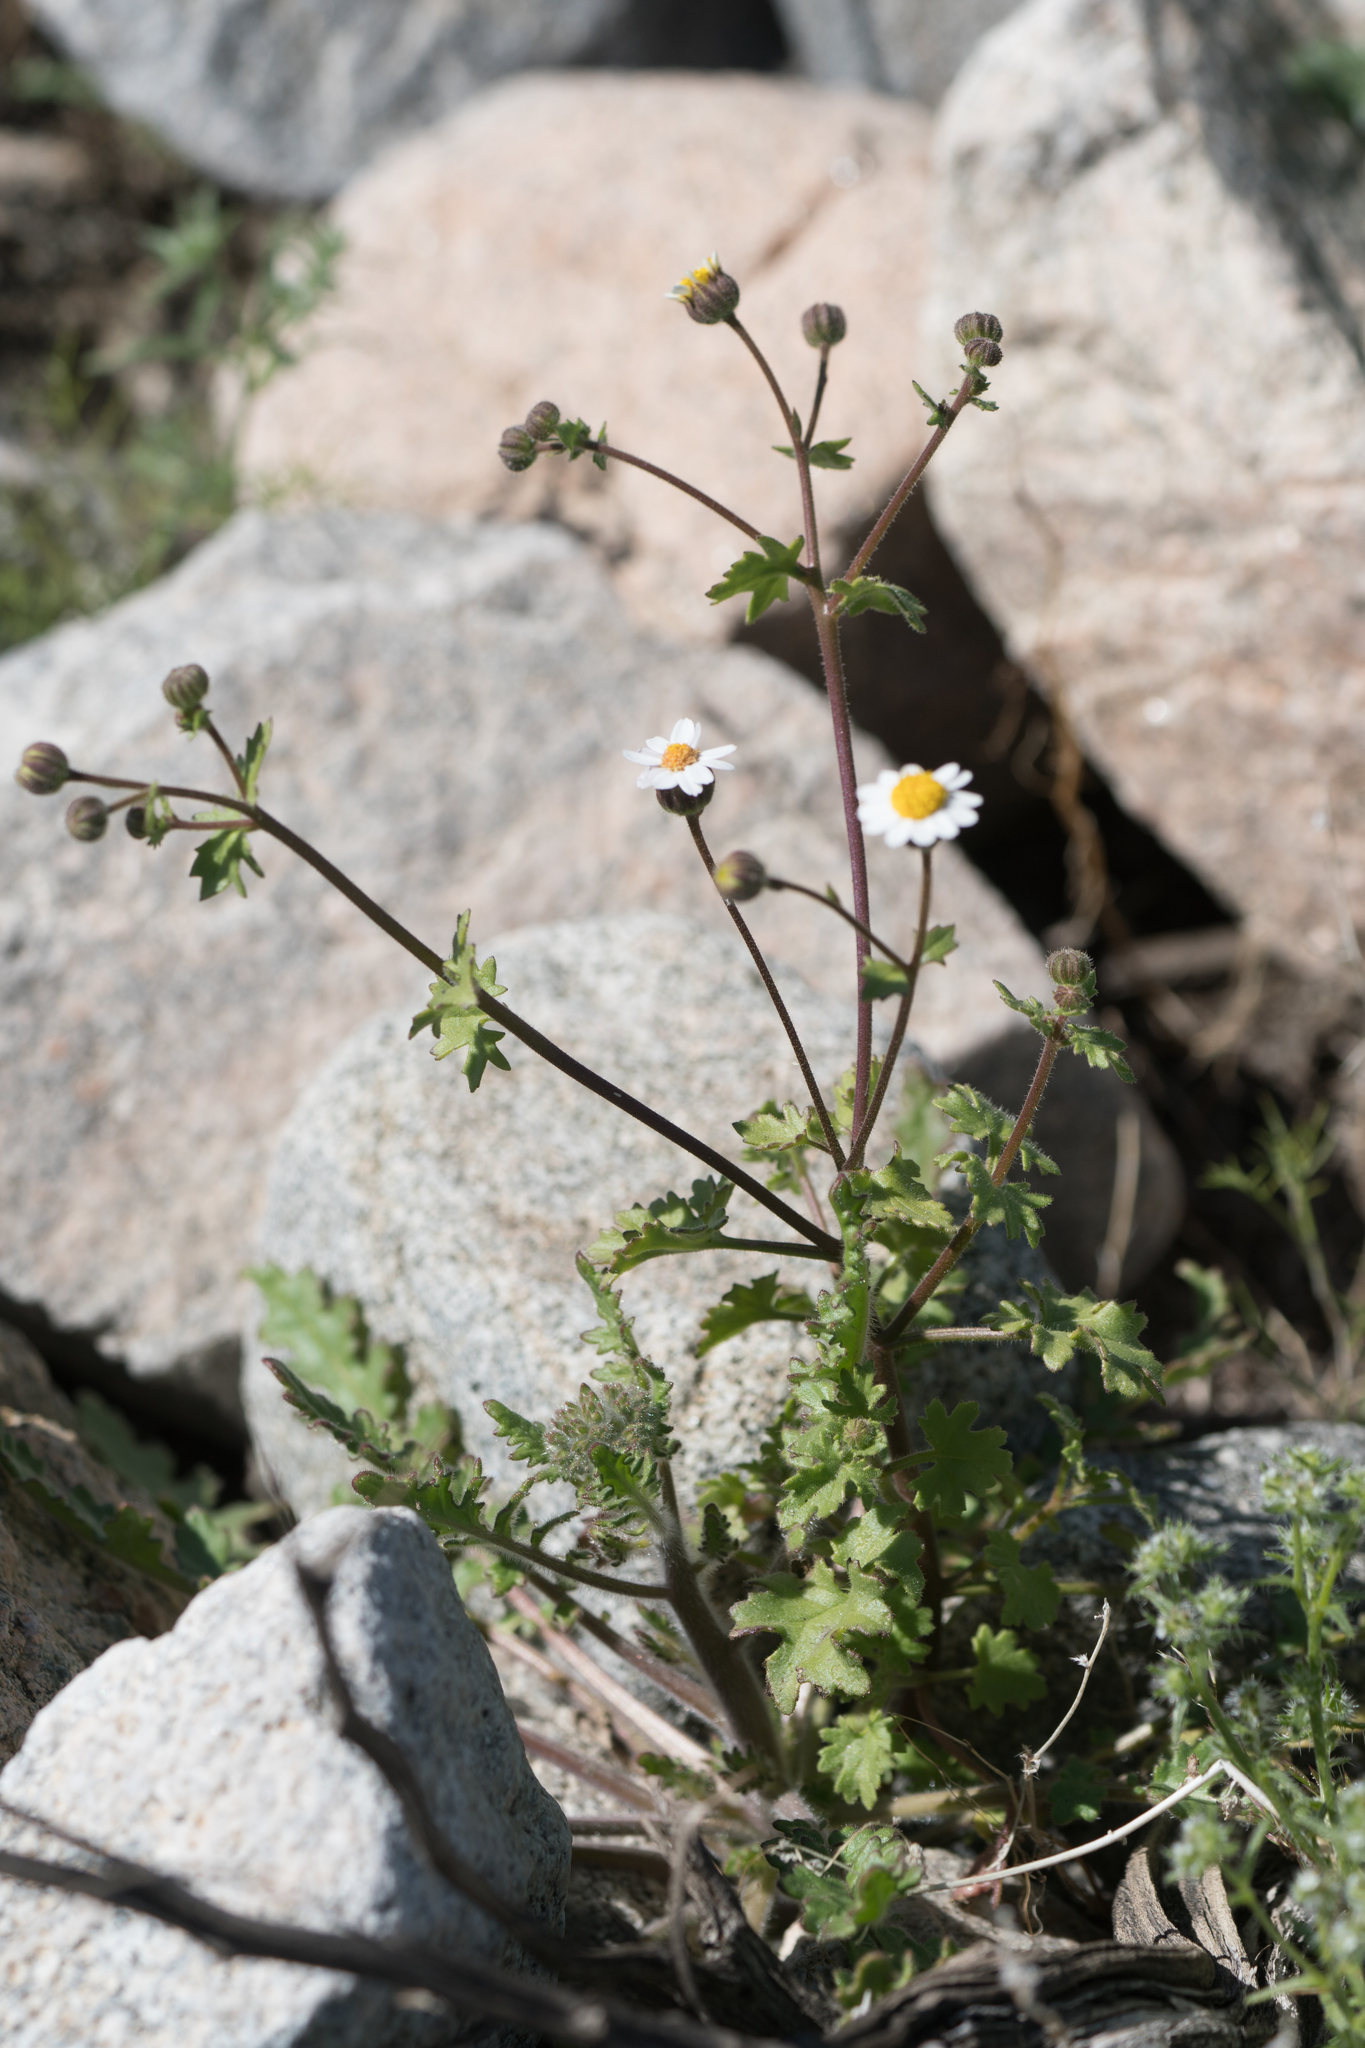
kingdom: Plantae
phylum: Tracheophyta
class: Magnoliopsida
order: Asterales
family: Asteraceae
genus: Laphamia
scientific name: Laphamia emoryi
